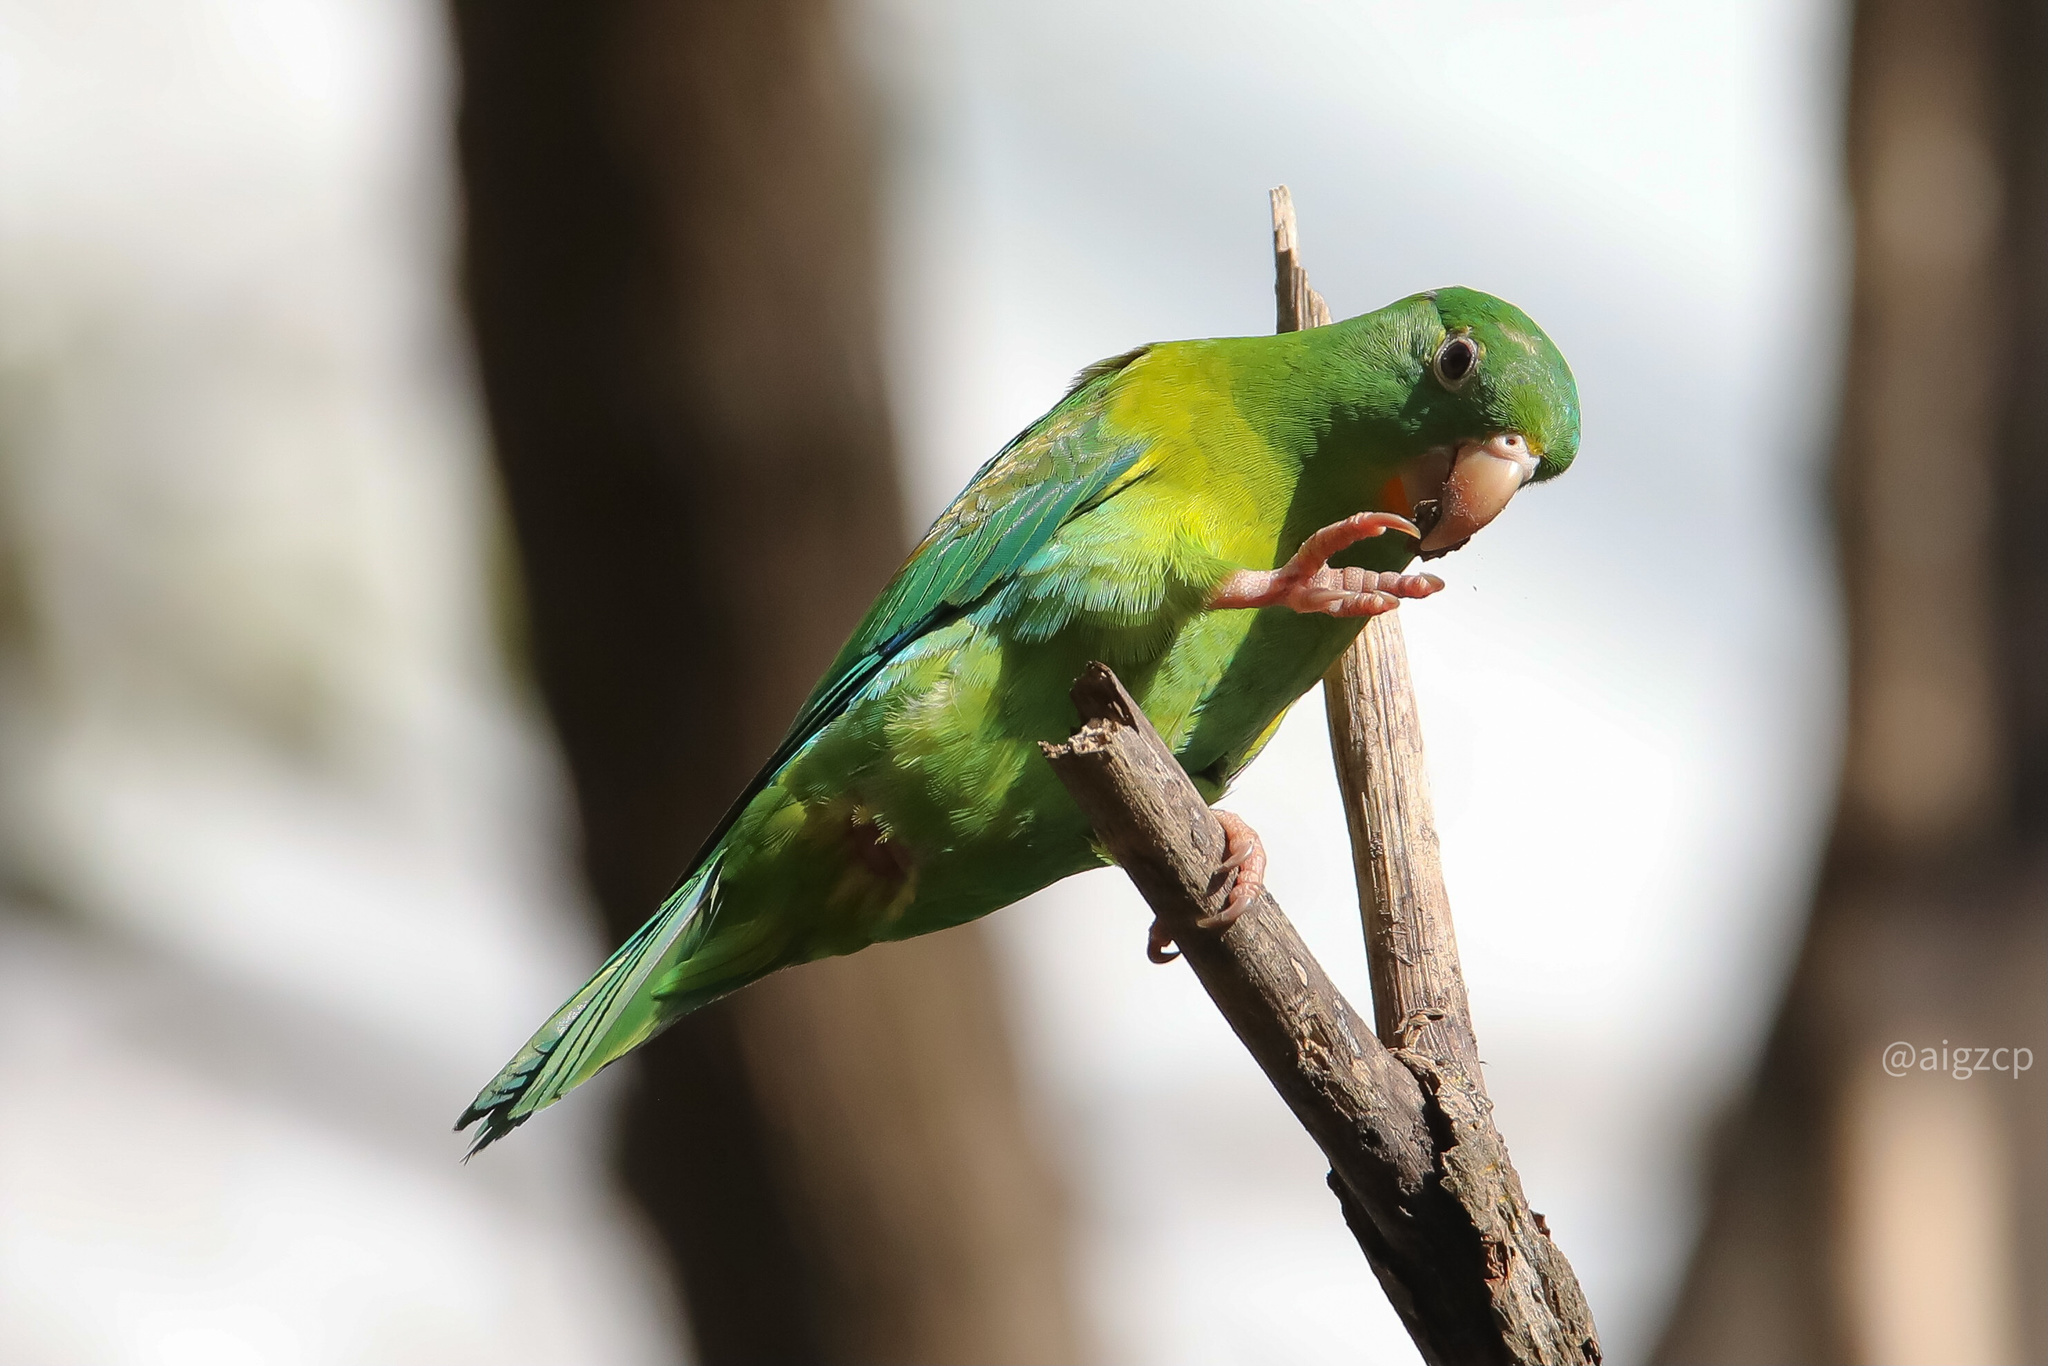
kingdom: Animalia
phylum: Chordata
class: Aves
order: Psittaciformes
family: Psittacidae
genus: Brotogeris
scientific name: Brotogeris jugularis
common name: Orange-chinned parakeet
